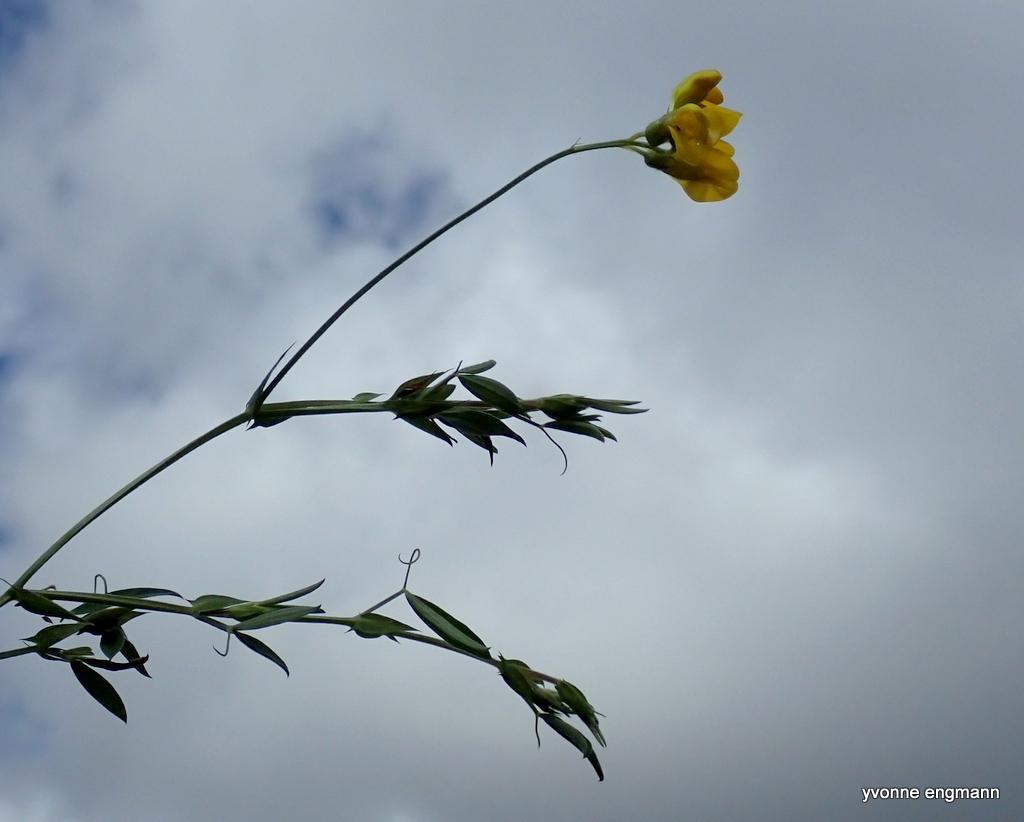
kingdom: Plantae
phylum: Tracheophyta
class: Magnoliopsida
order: Fabales
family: Fabaceae
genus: Lathyrus
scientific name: Lathyrus pratensis
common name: Meadow vetchling
